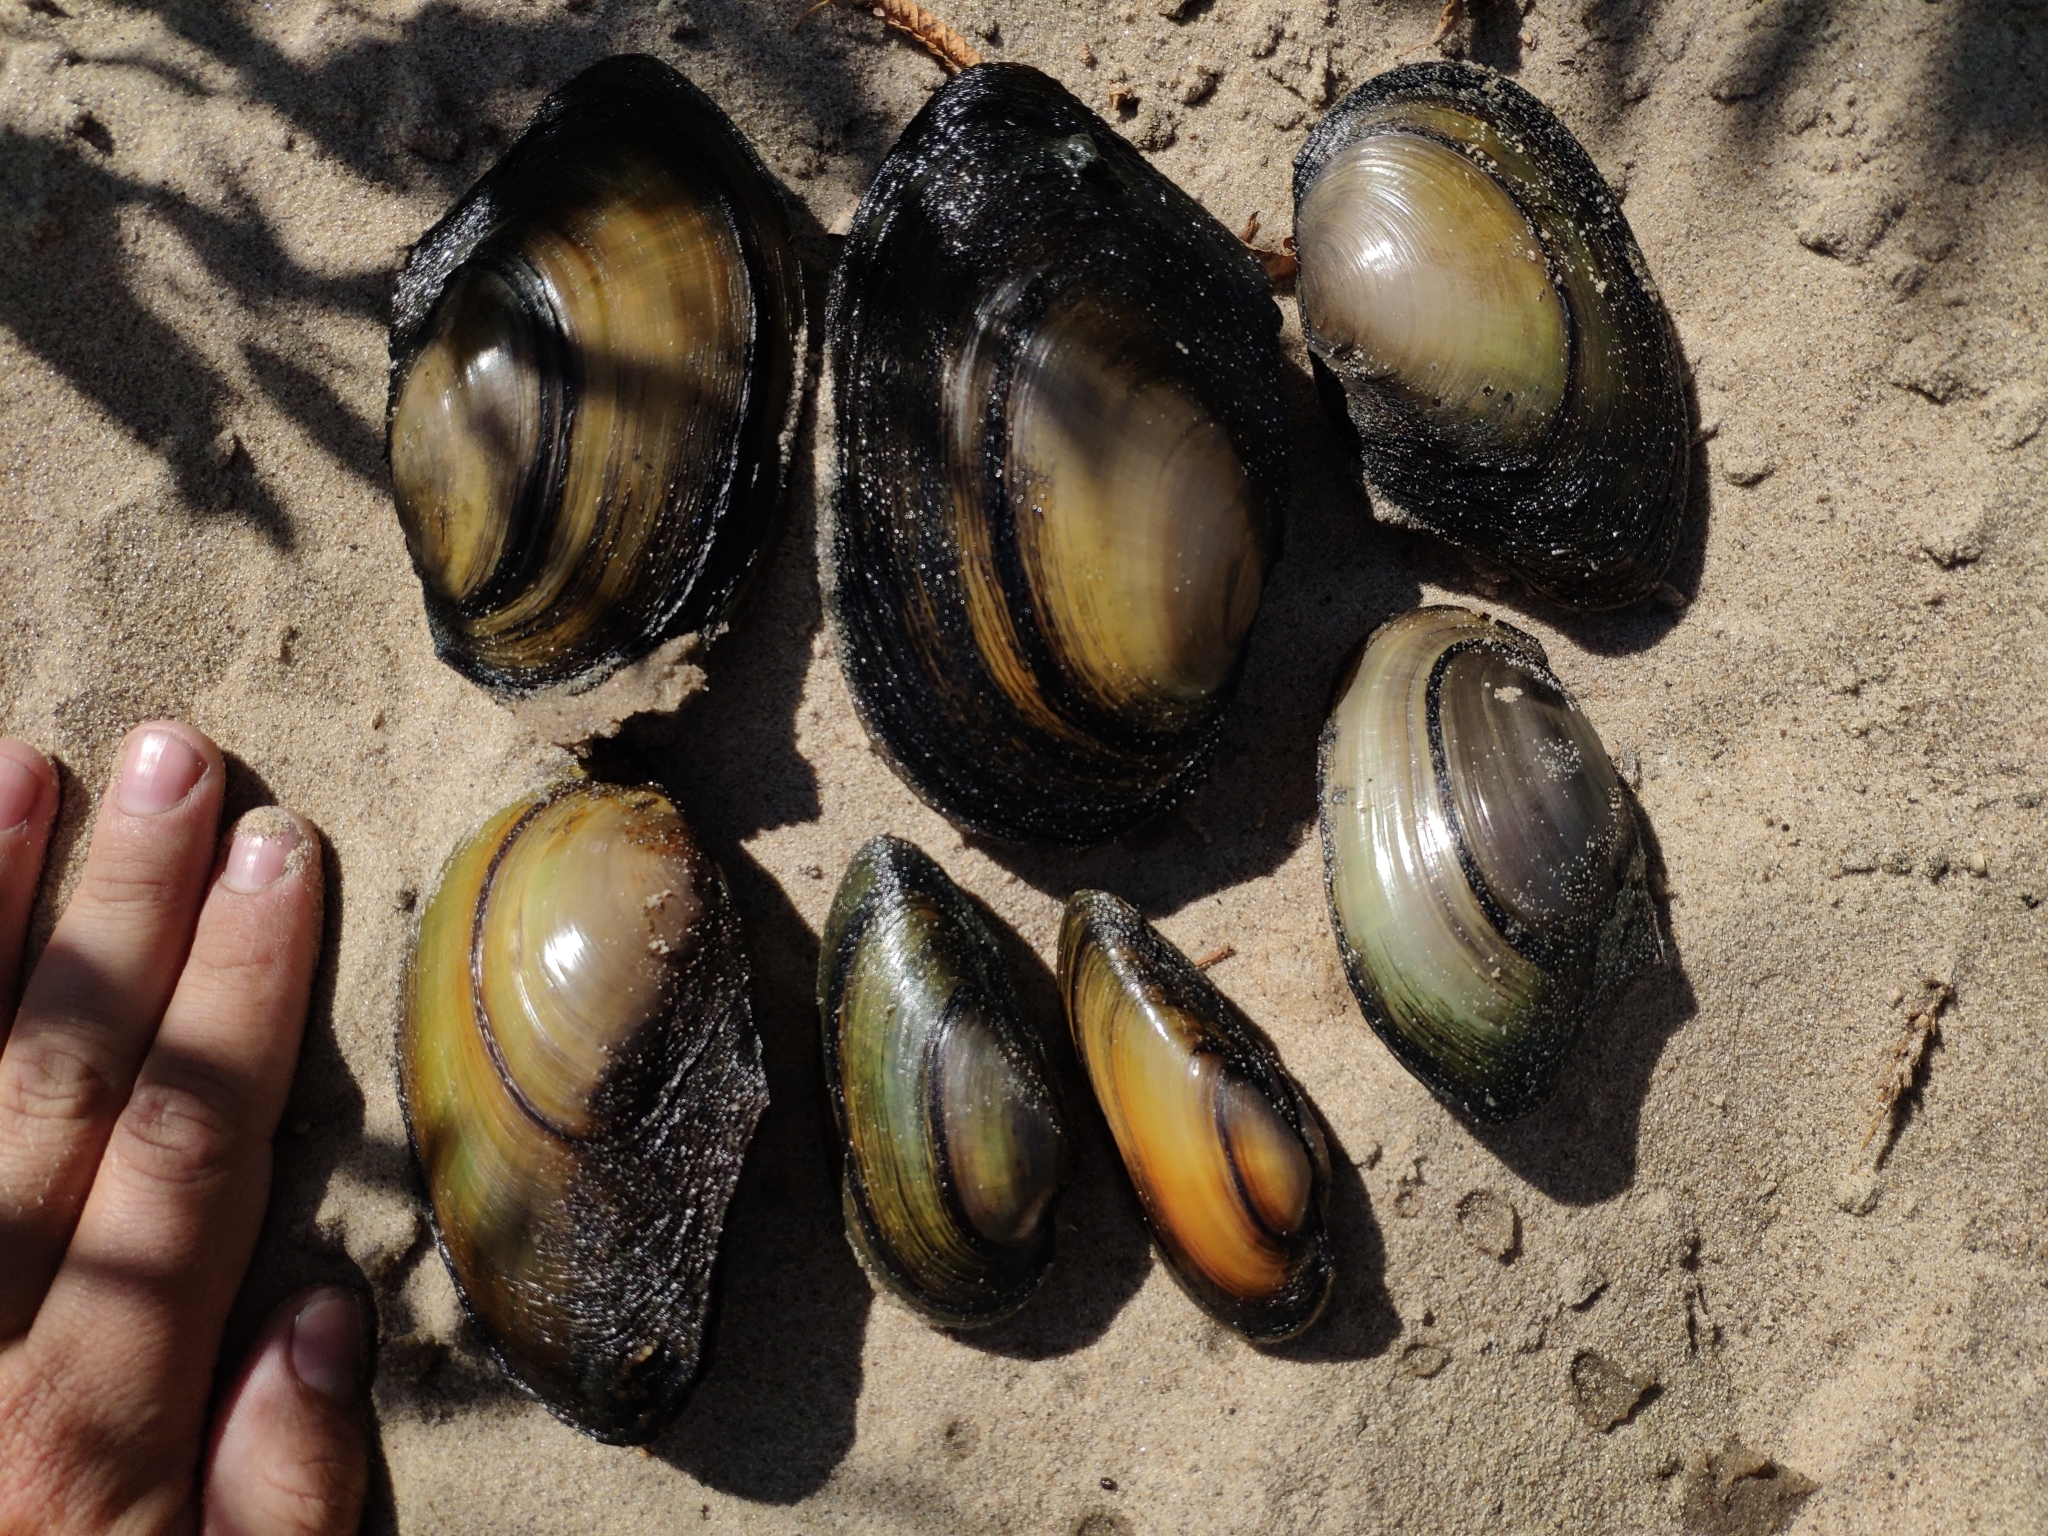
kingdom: Animalia
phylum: Mollusca
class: Bivalvia
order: Unionida
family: Unionidae
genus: Anodonta
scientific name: Anodonta anatina
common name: Duck mussel
